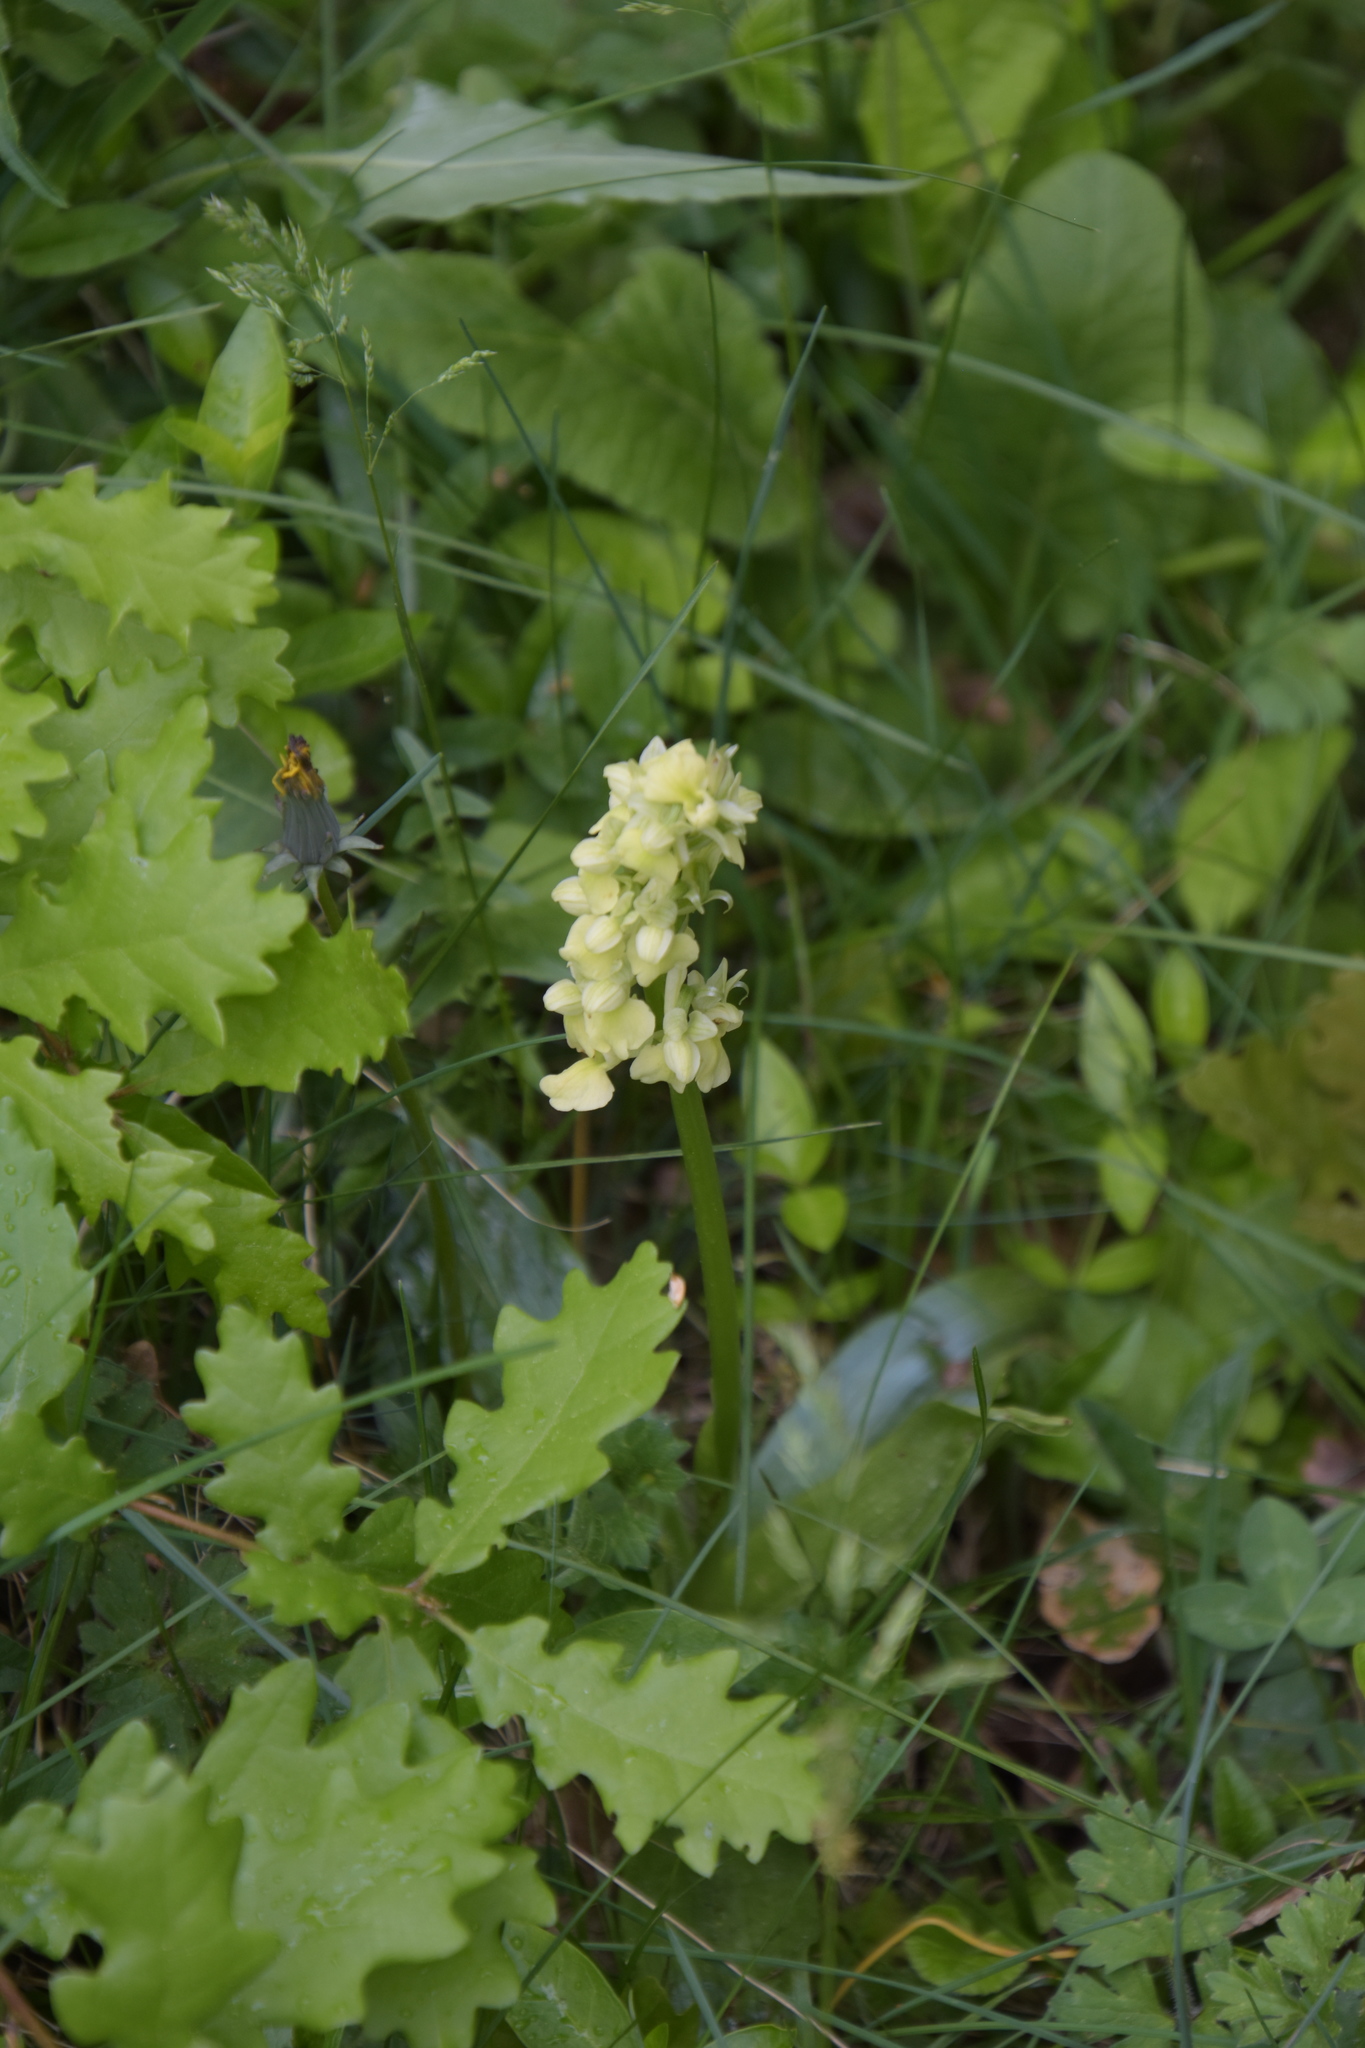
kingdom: Plantae
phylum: Tracheophyta
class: Liliopsida
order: Asparagales
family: Orchidaceae
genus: Orchis
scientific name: Orchis pallens
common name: Pale-flowered orchid
